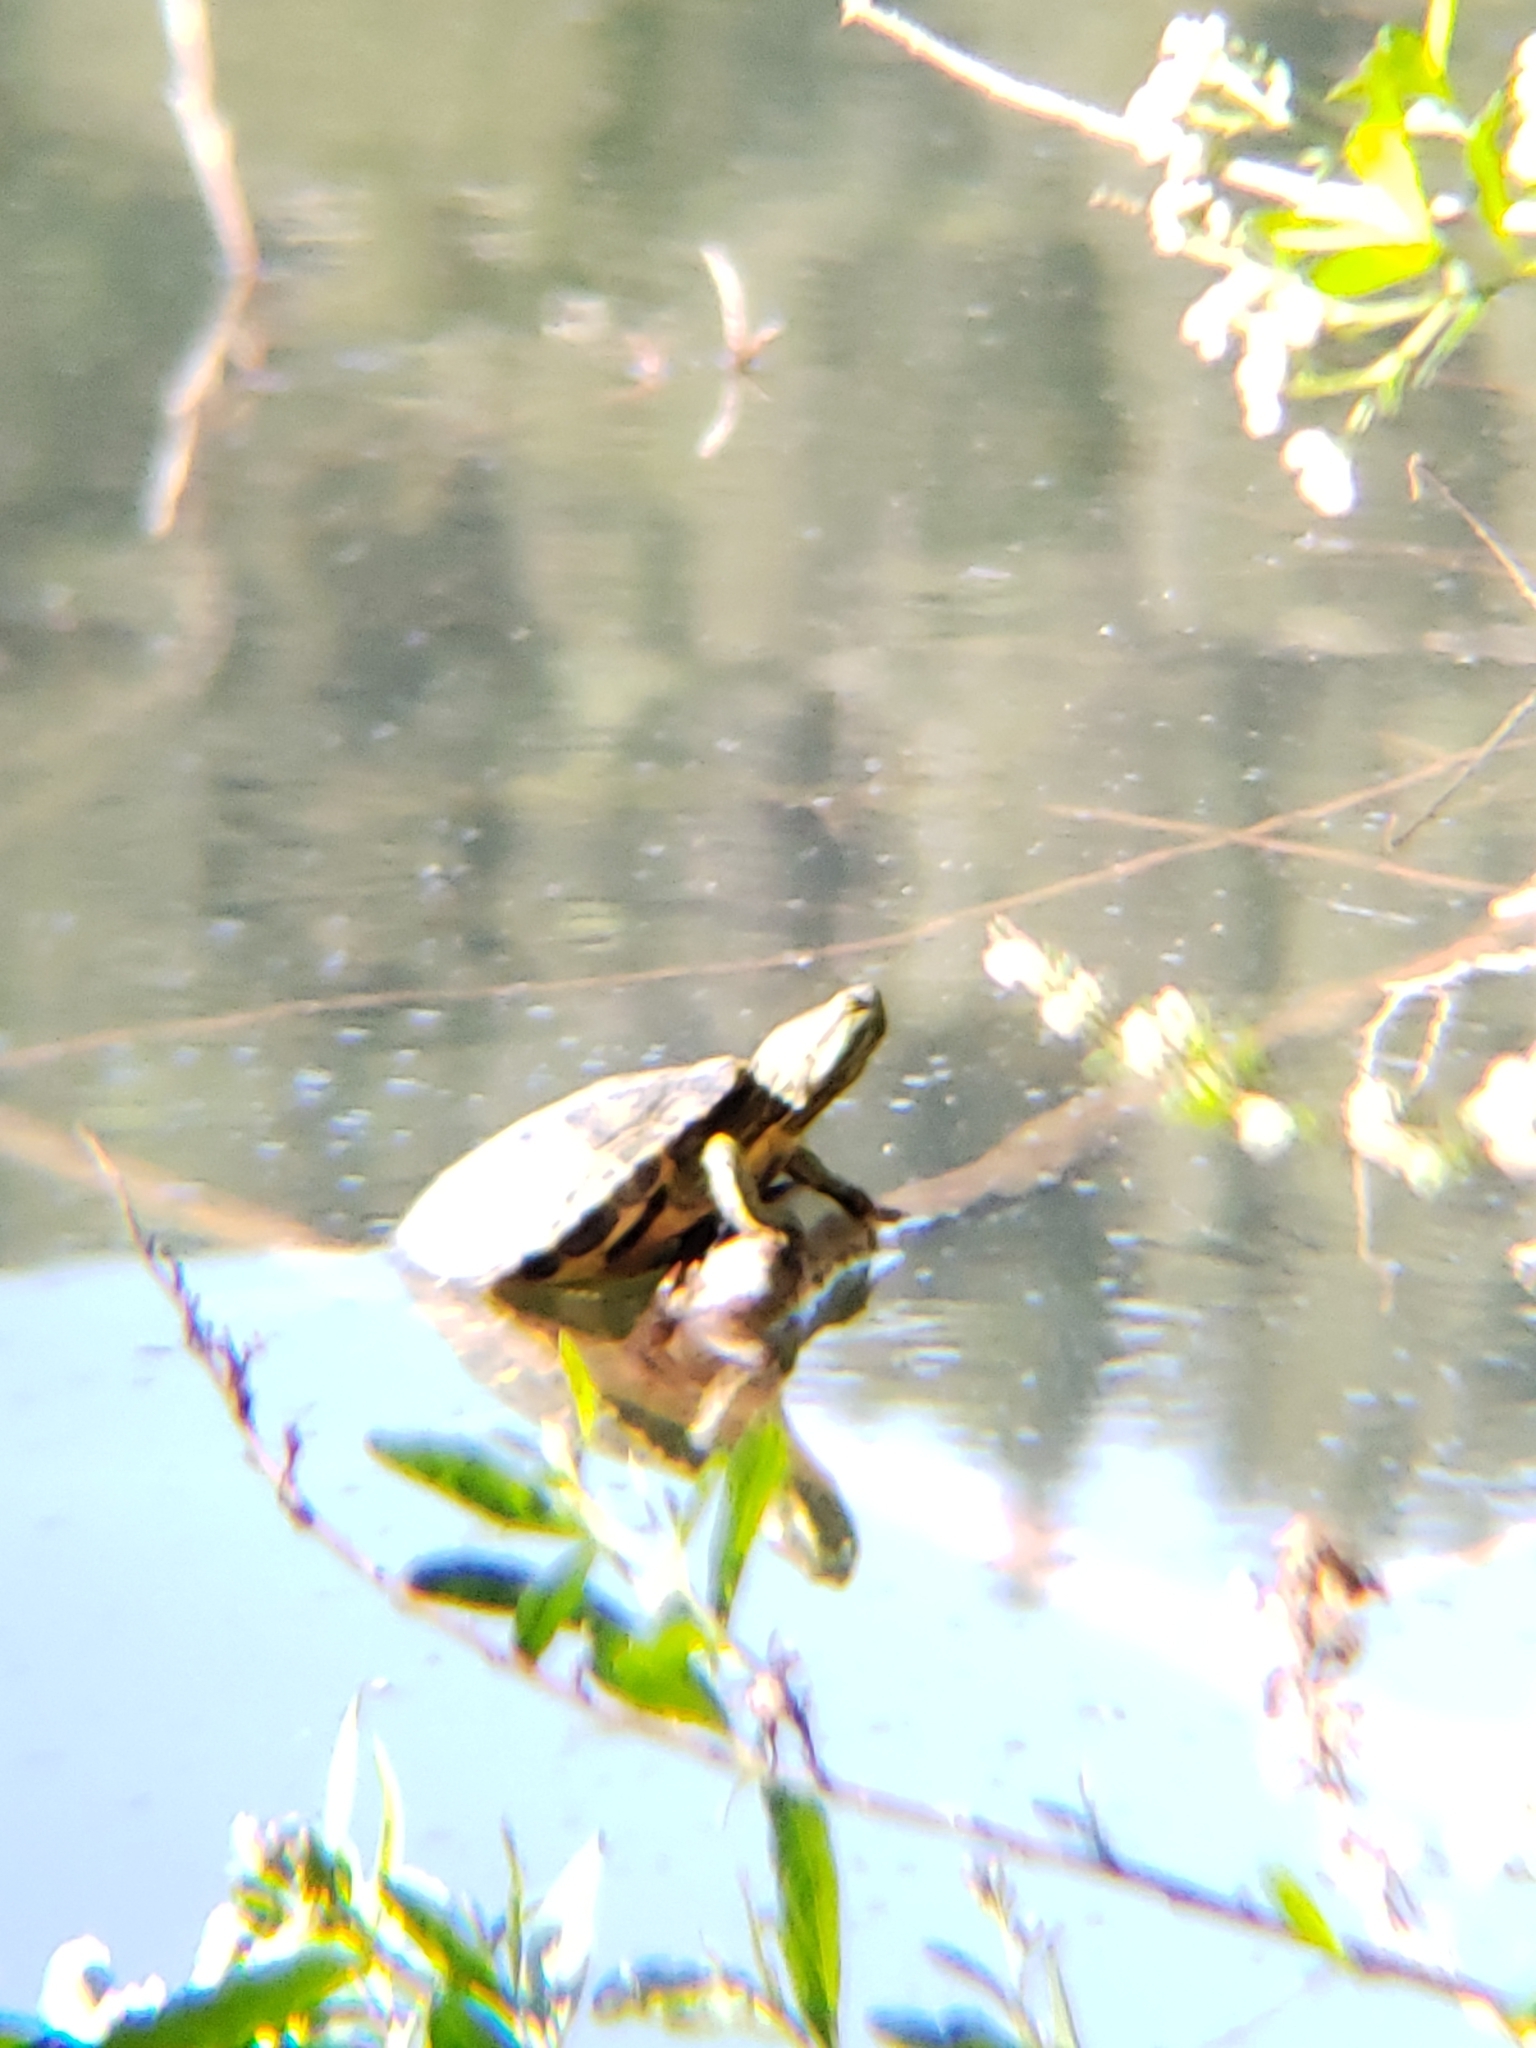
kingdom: Animalia
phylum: Chordata
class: Testudines
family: Emydidae
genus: Trachemys
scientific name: Trachemys scripta
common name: Slider
